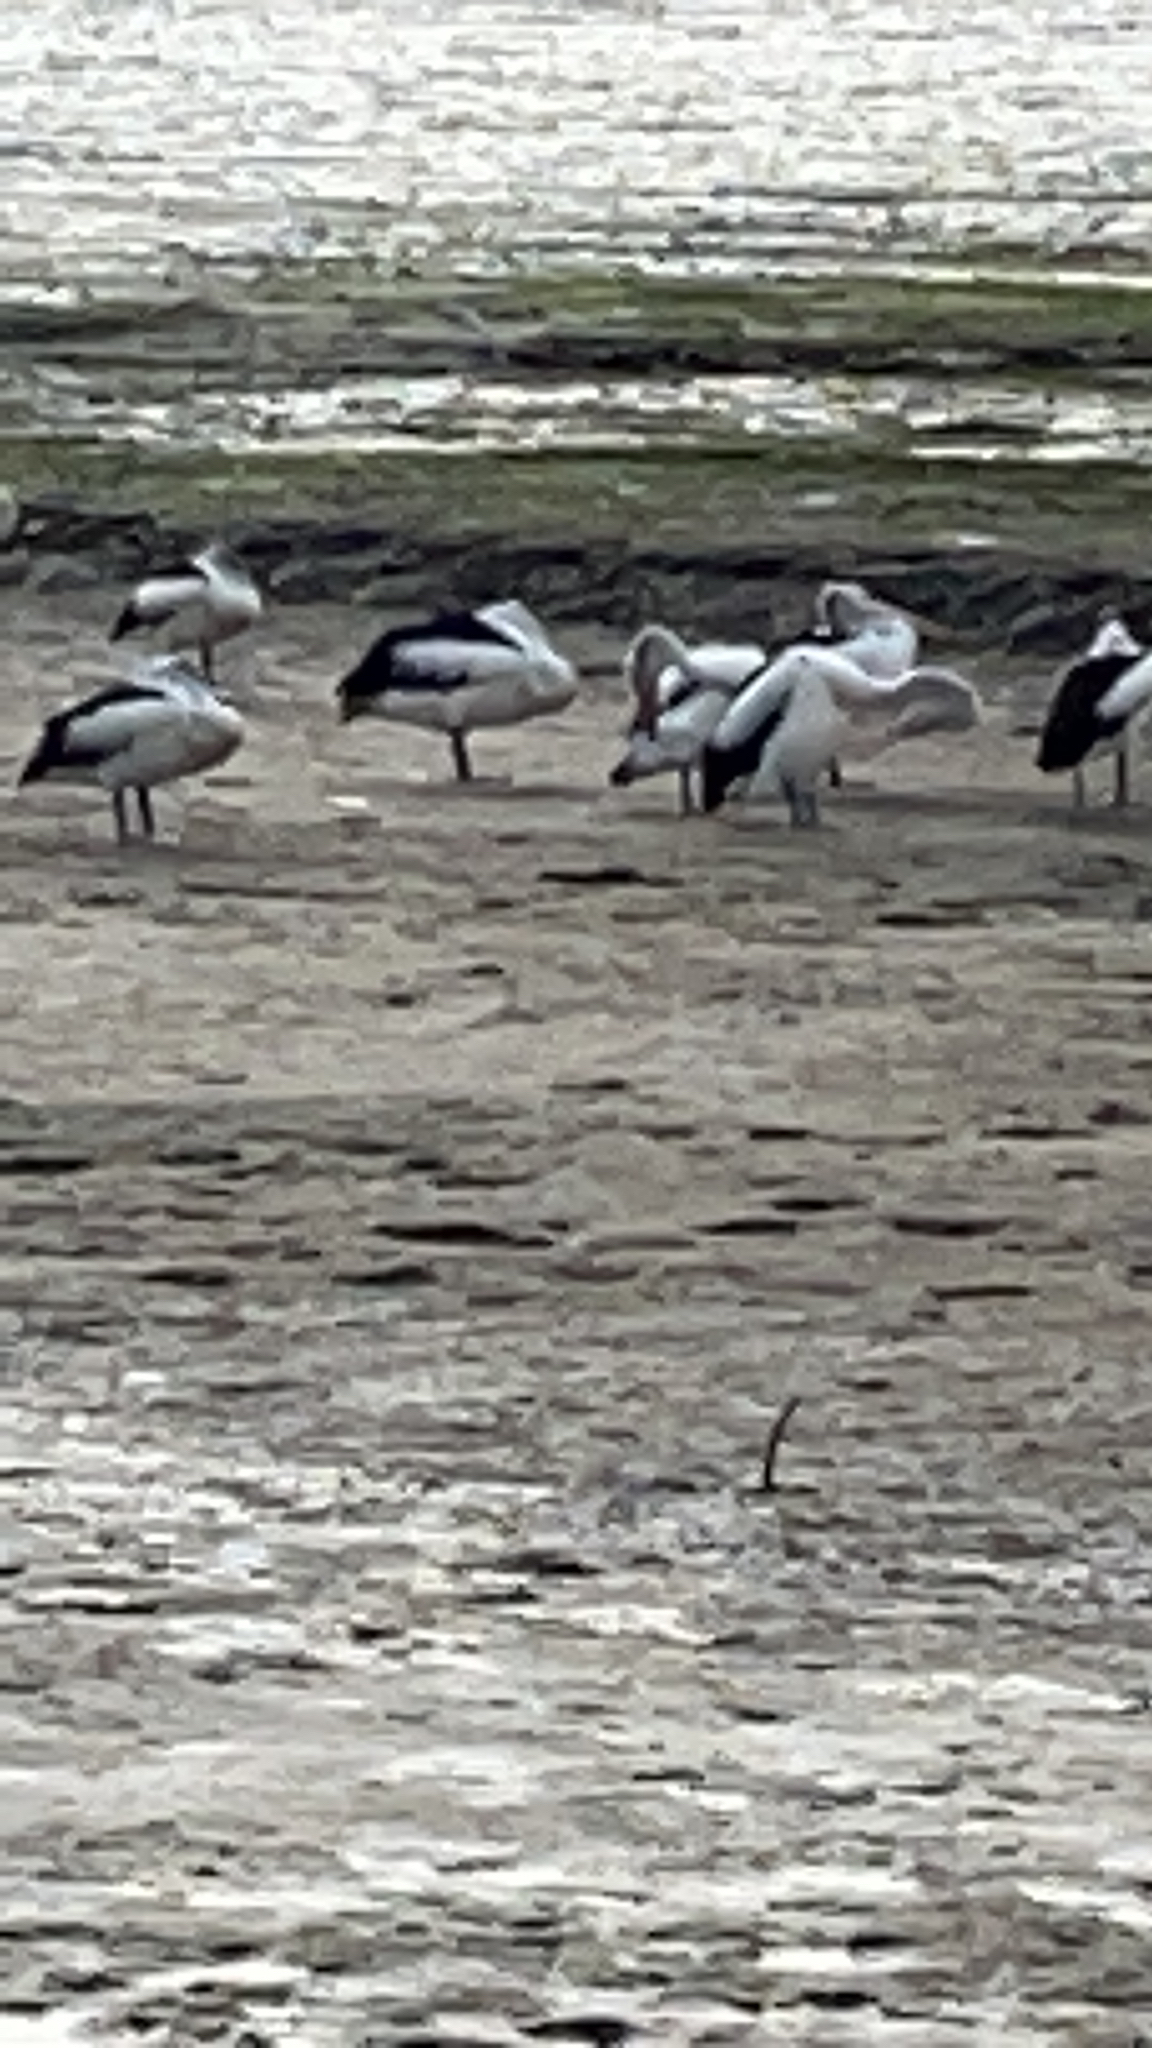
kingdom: Animalia
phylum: Chordata
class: Aves
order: Pelecaniformes
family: Pelecanidae
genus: Pelecanus
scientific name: Pelecanus conspicillatus
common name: Australian pelican
